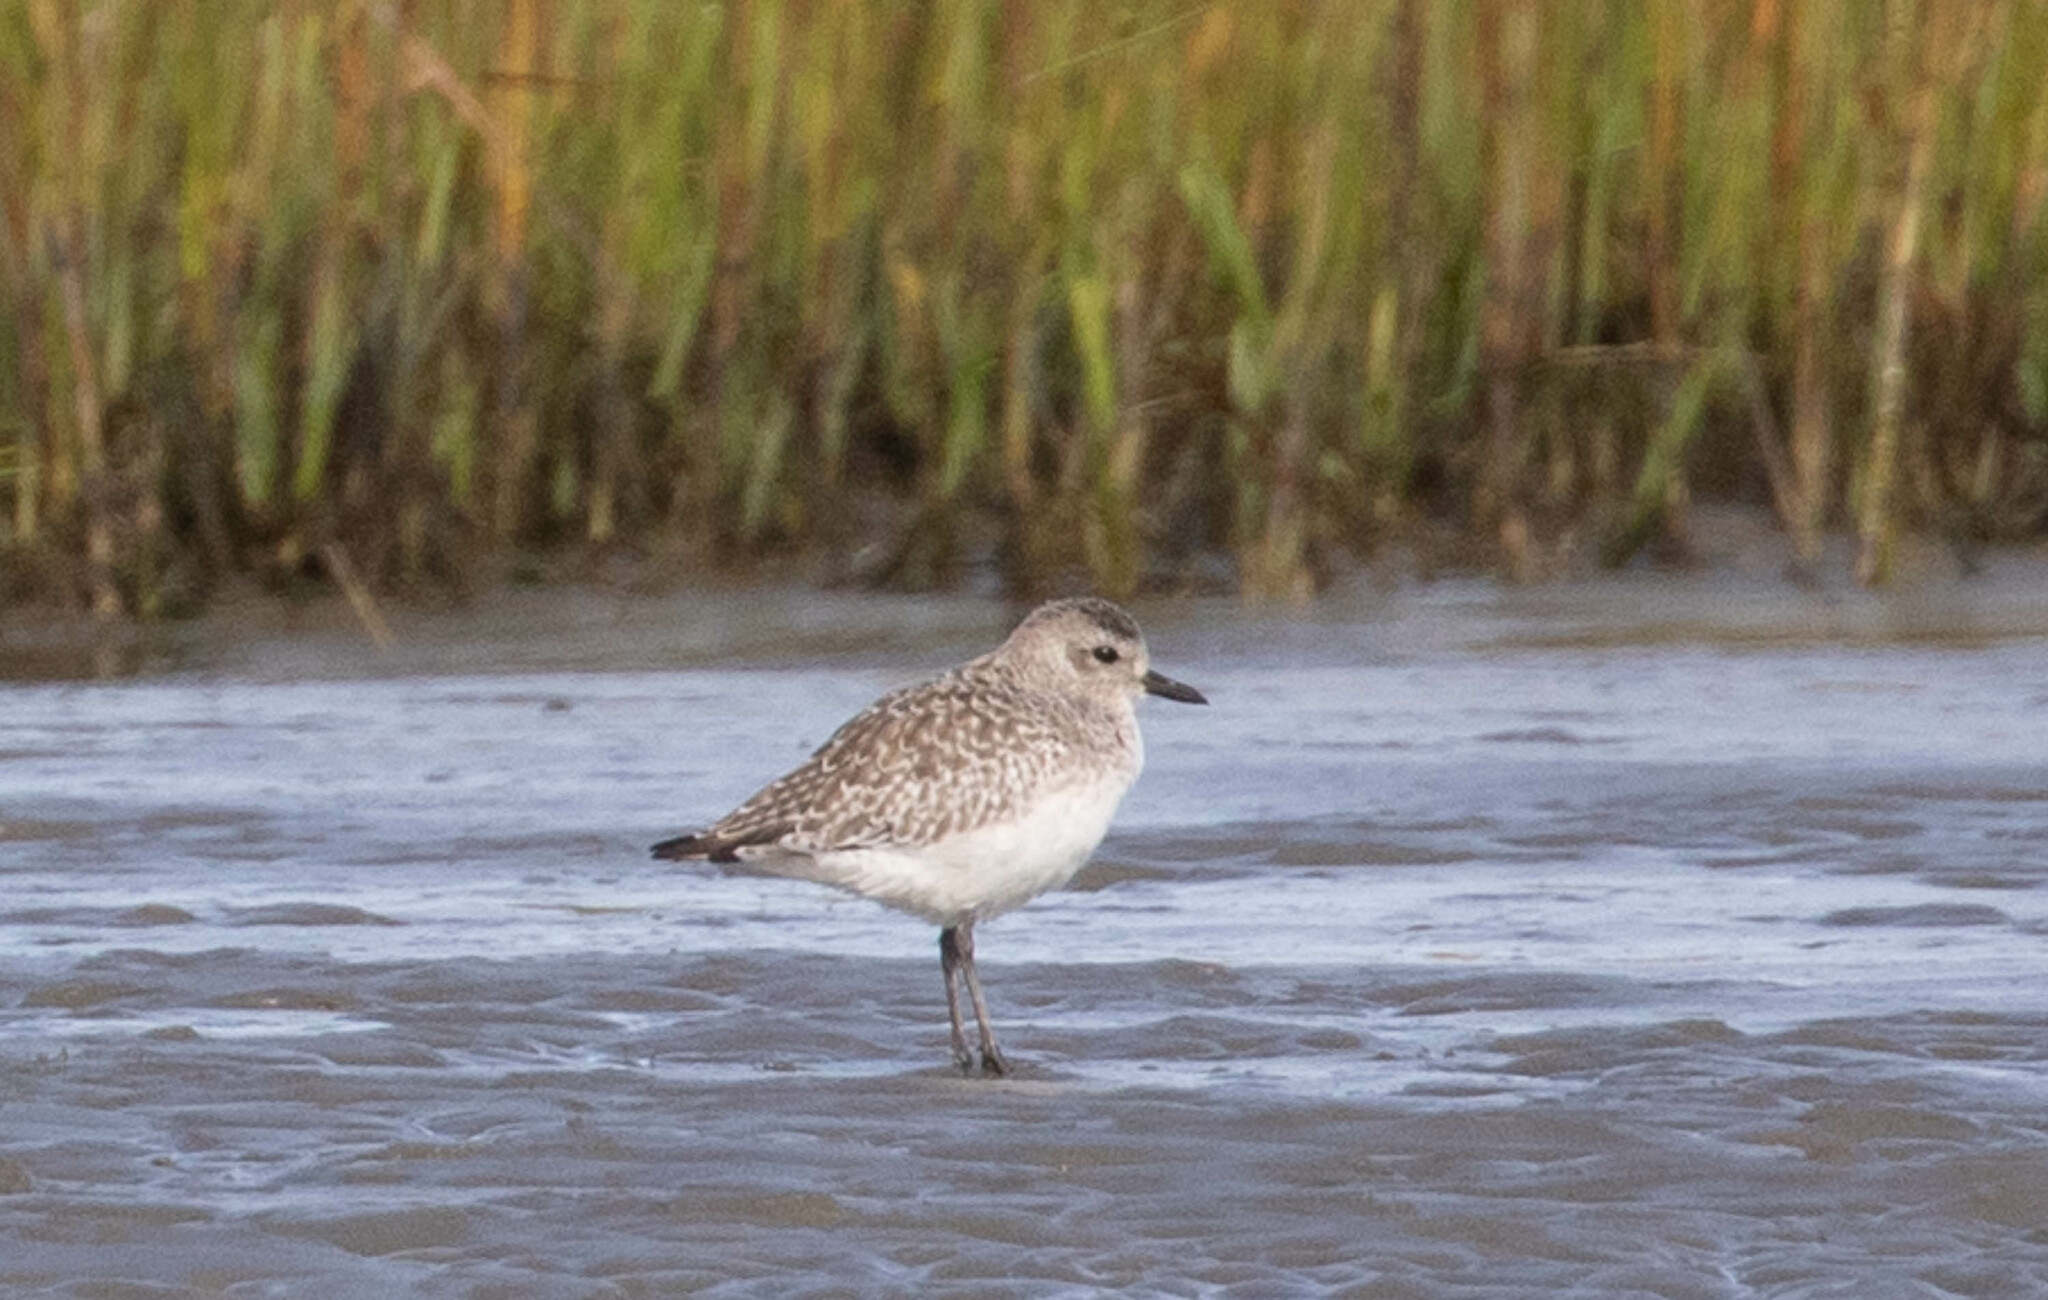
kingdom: Animalia
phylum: Chordata
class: Aves
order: Charadriiformes
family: Charadriidae
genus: Pluvialis
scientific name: Pluvialis squatarola
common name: Grey plover
